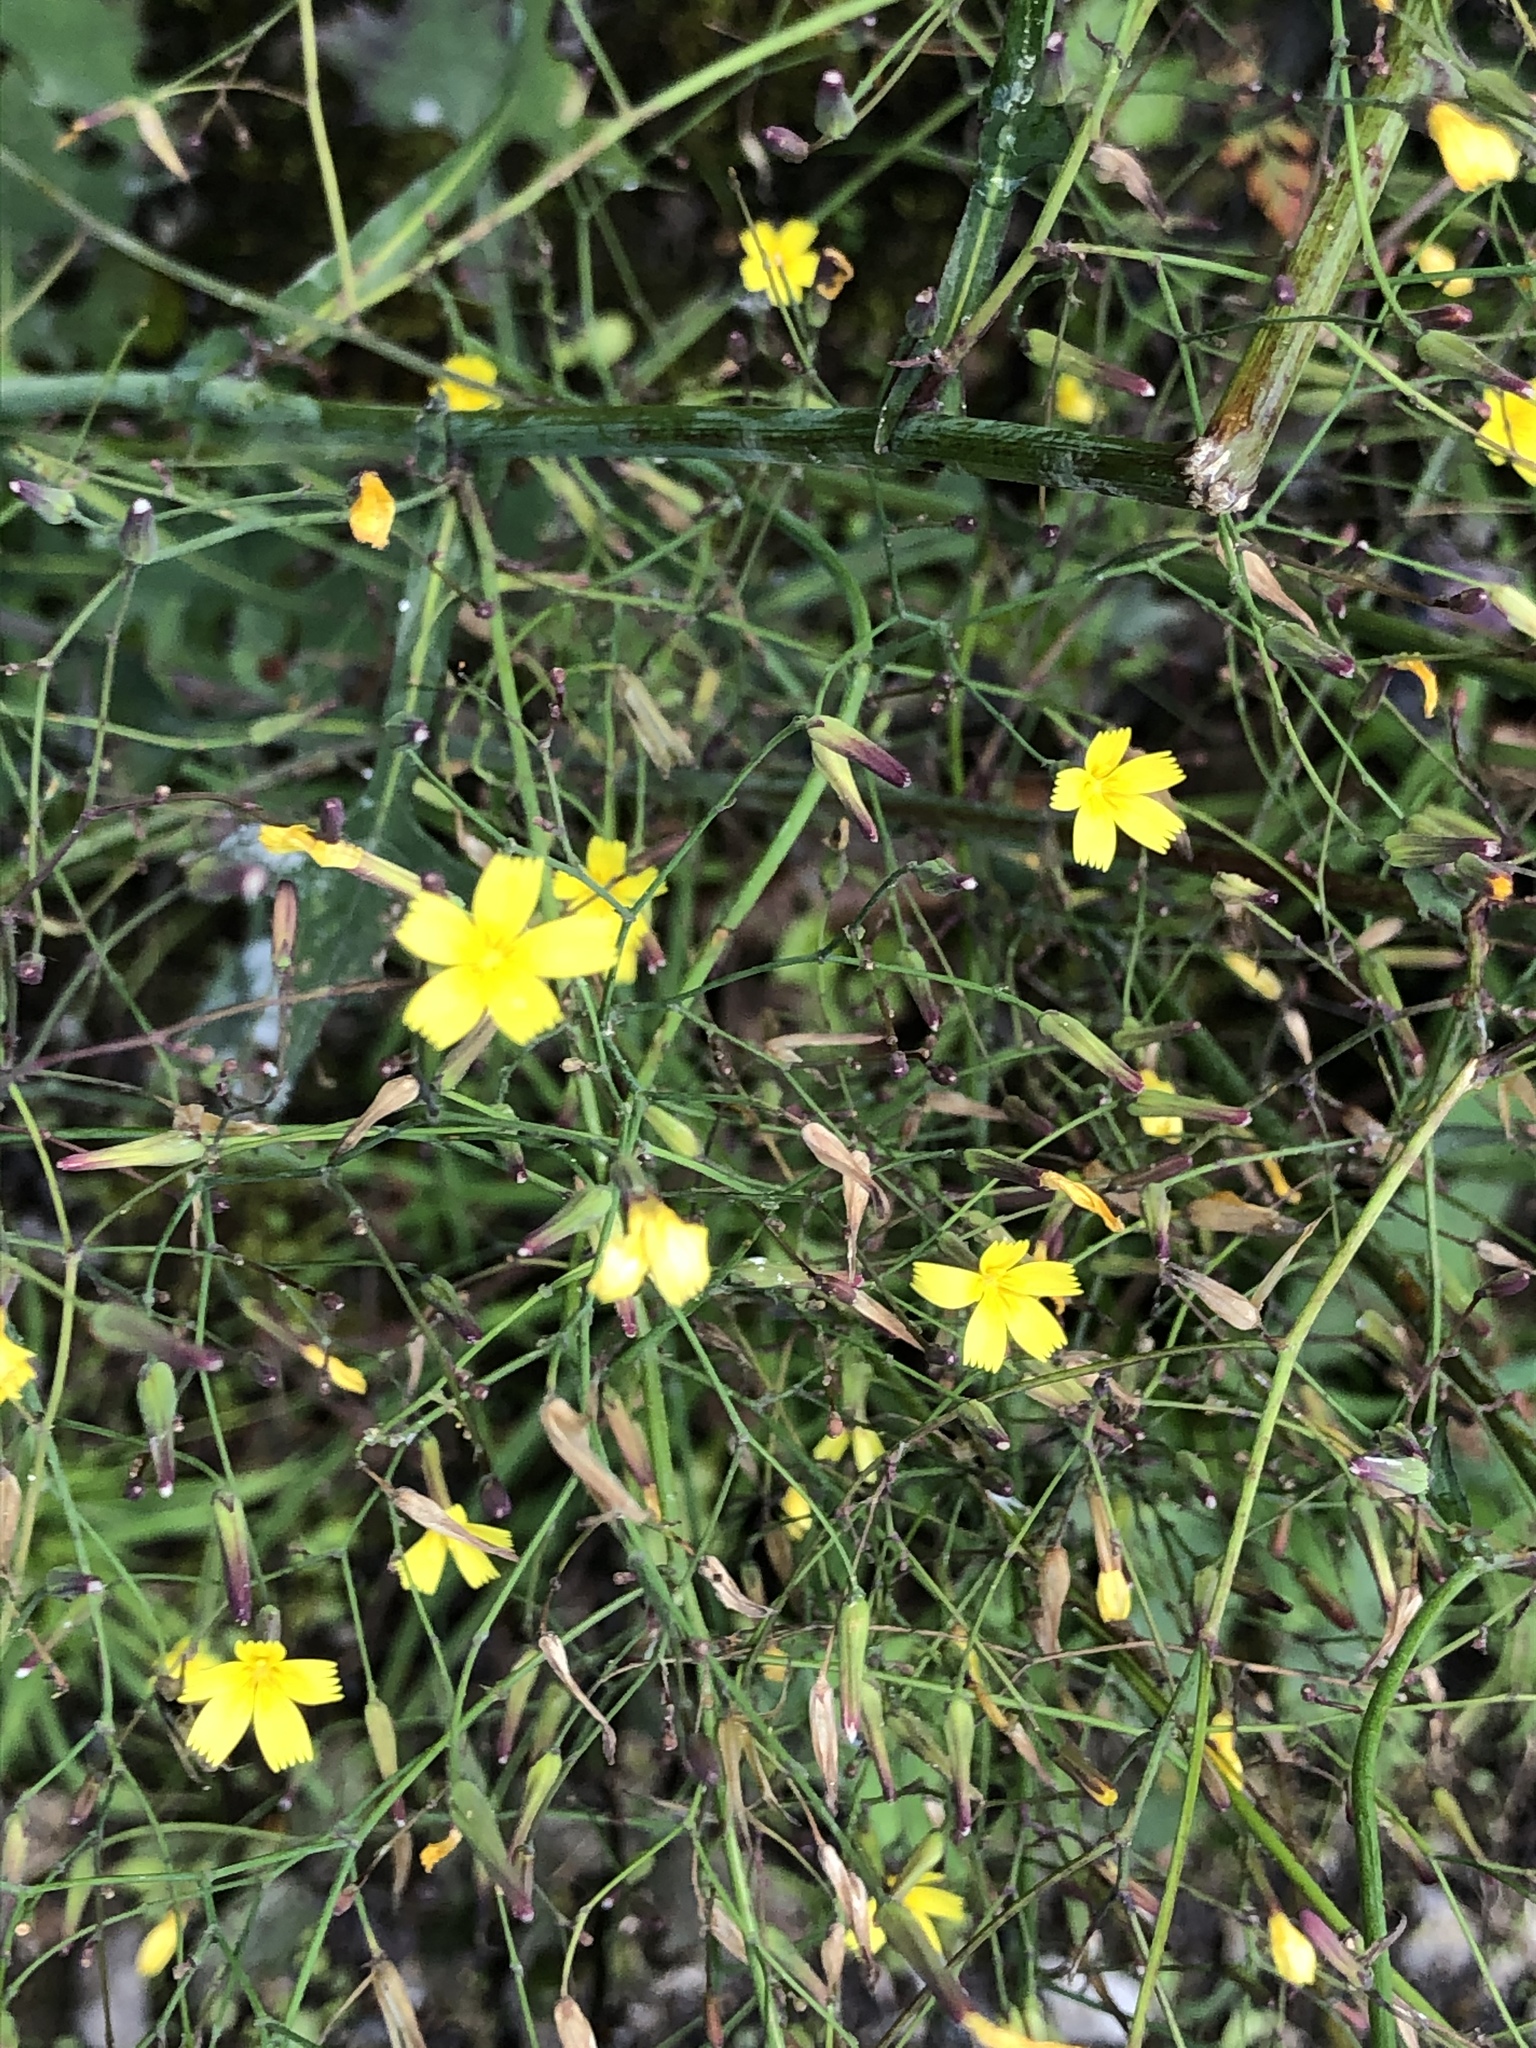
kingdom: Plantae
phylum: Tracheophyta
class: Magnoliopsida
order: Asterales
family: Asteraceae
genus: Mycelis
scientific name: Mycelis muralis
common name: Wall lettuce
